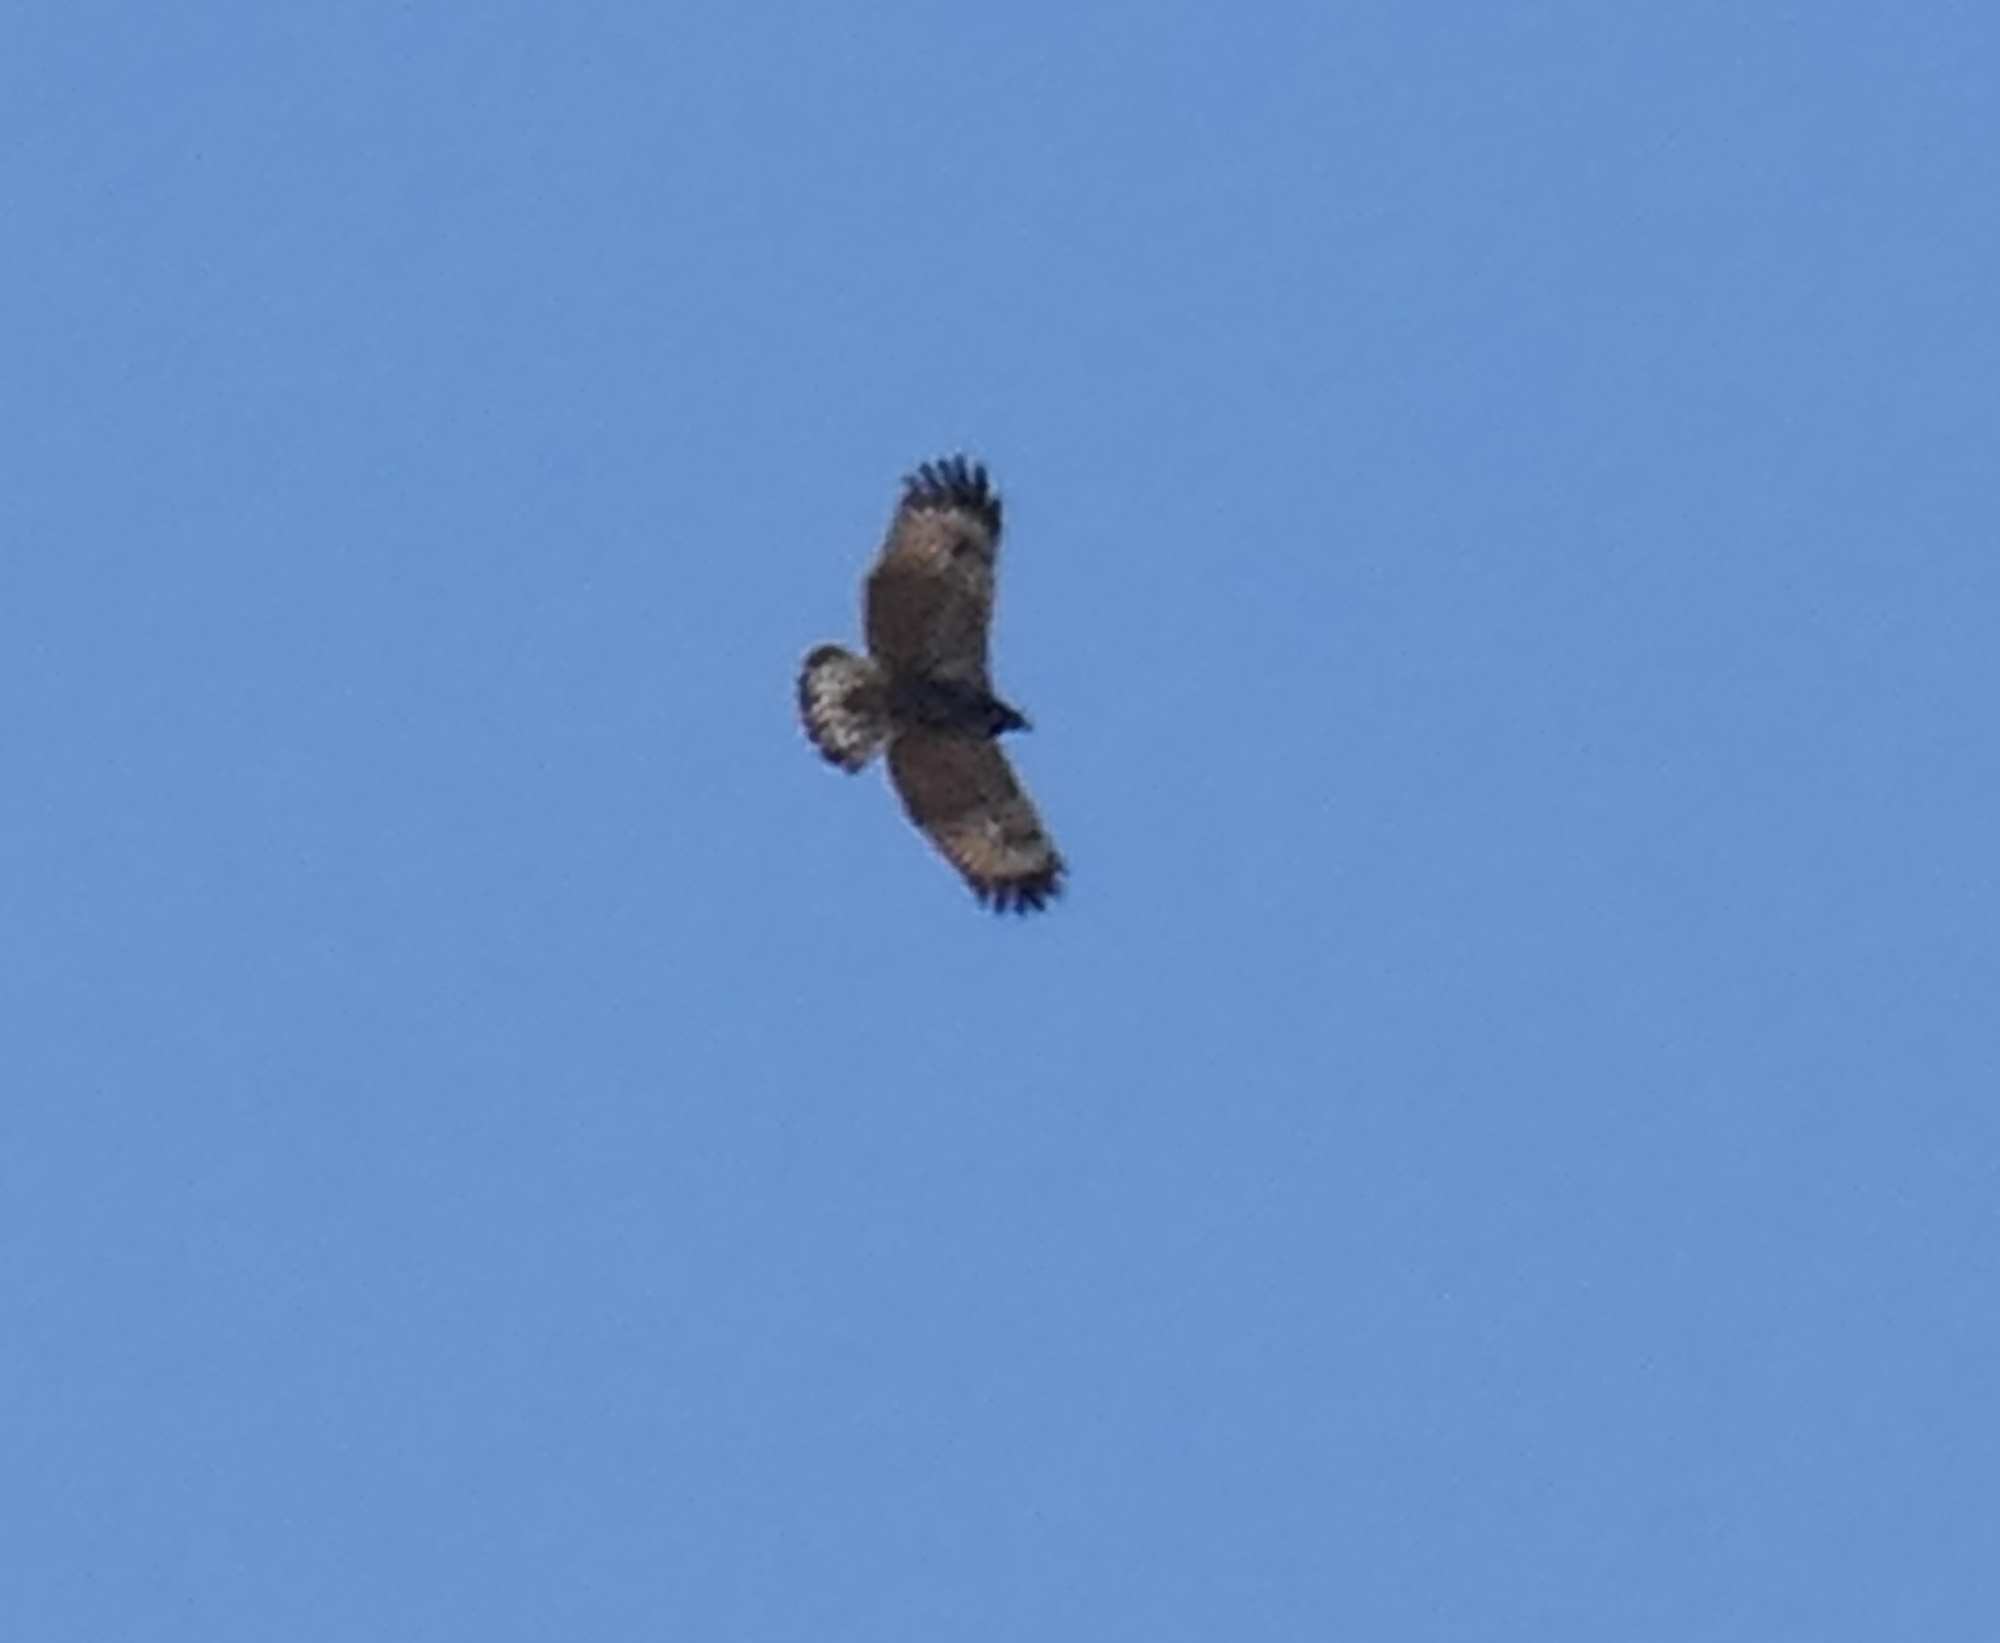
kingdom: Animalia
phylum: Chordata
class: Aves
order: Accipitriformes
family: Accipitridae
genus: Buteogallus
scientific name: Buteogallus anthracinus
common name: Common black hawk
